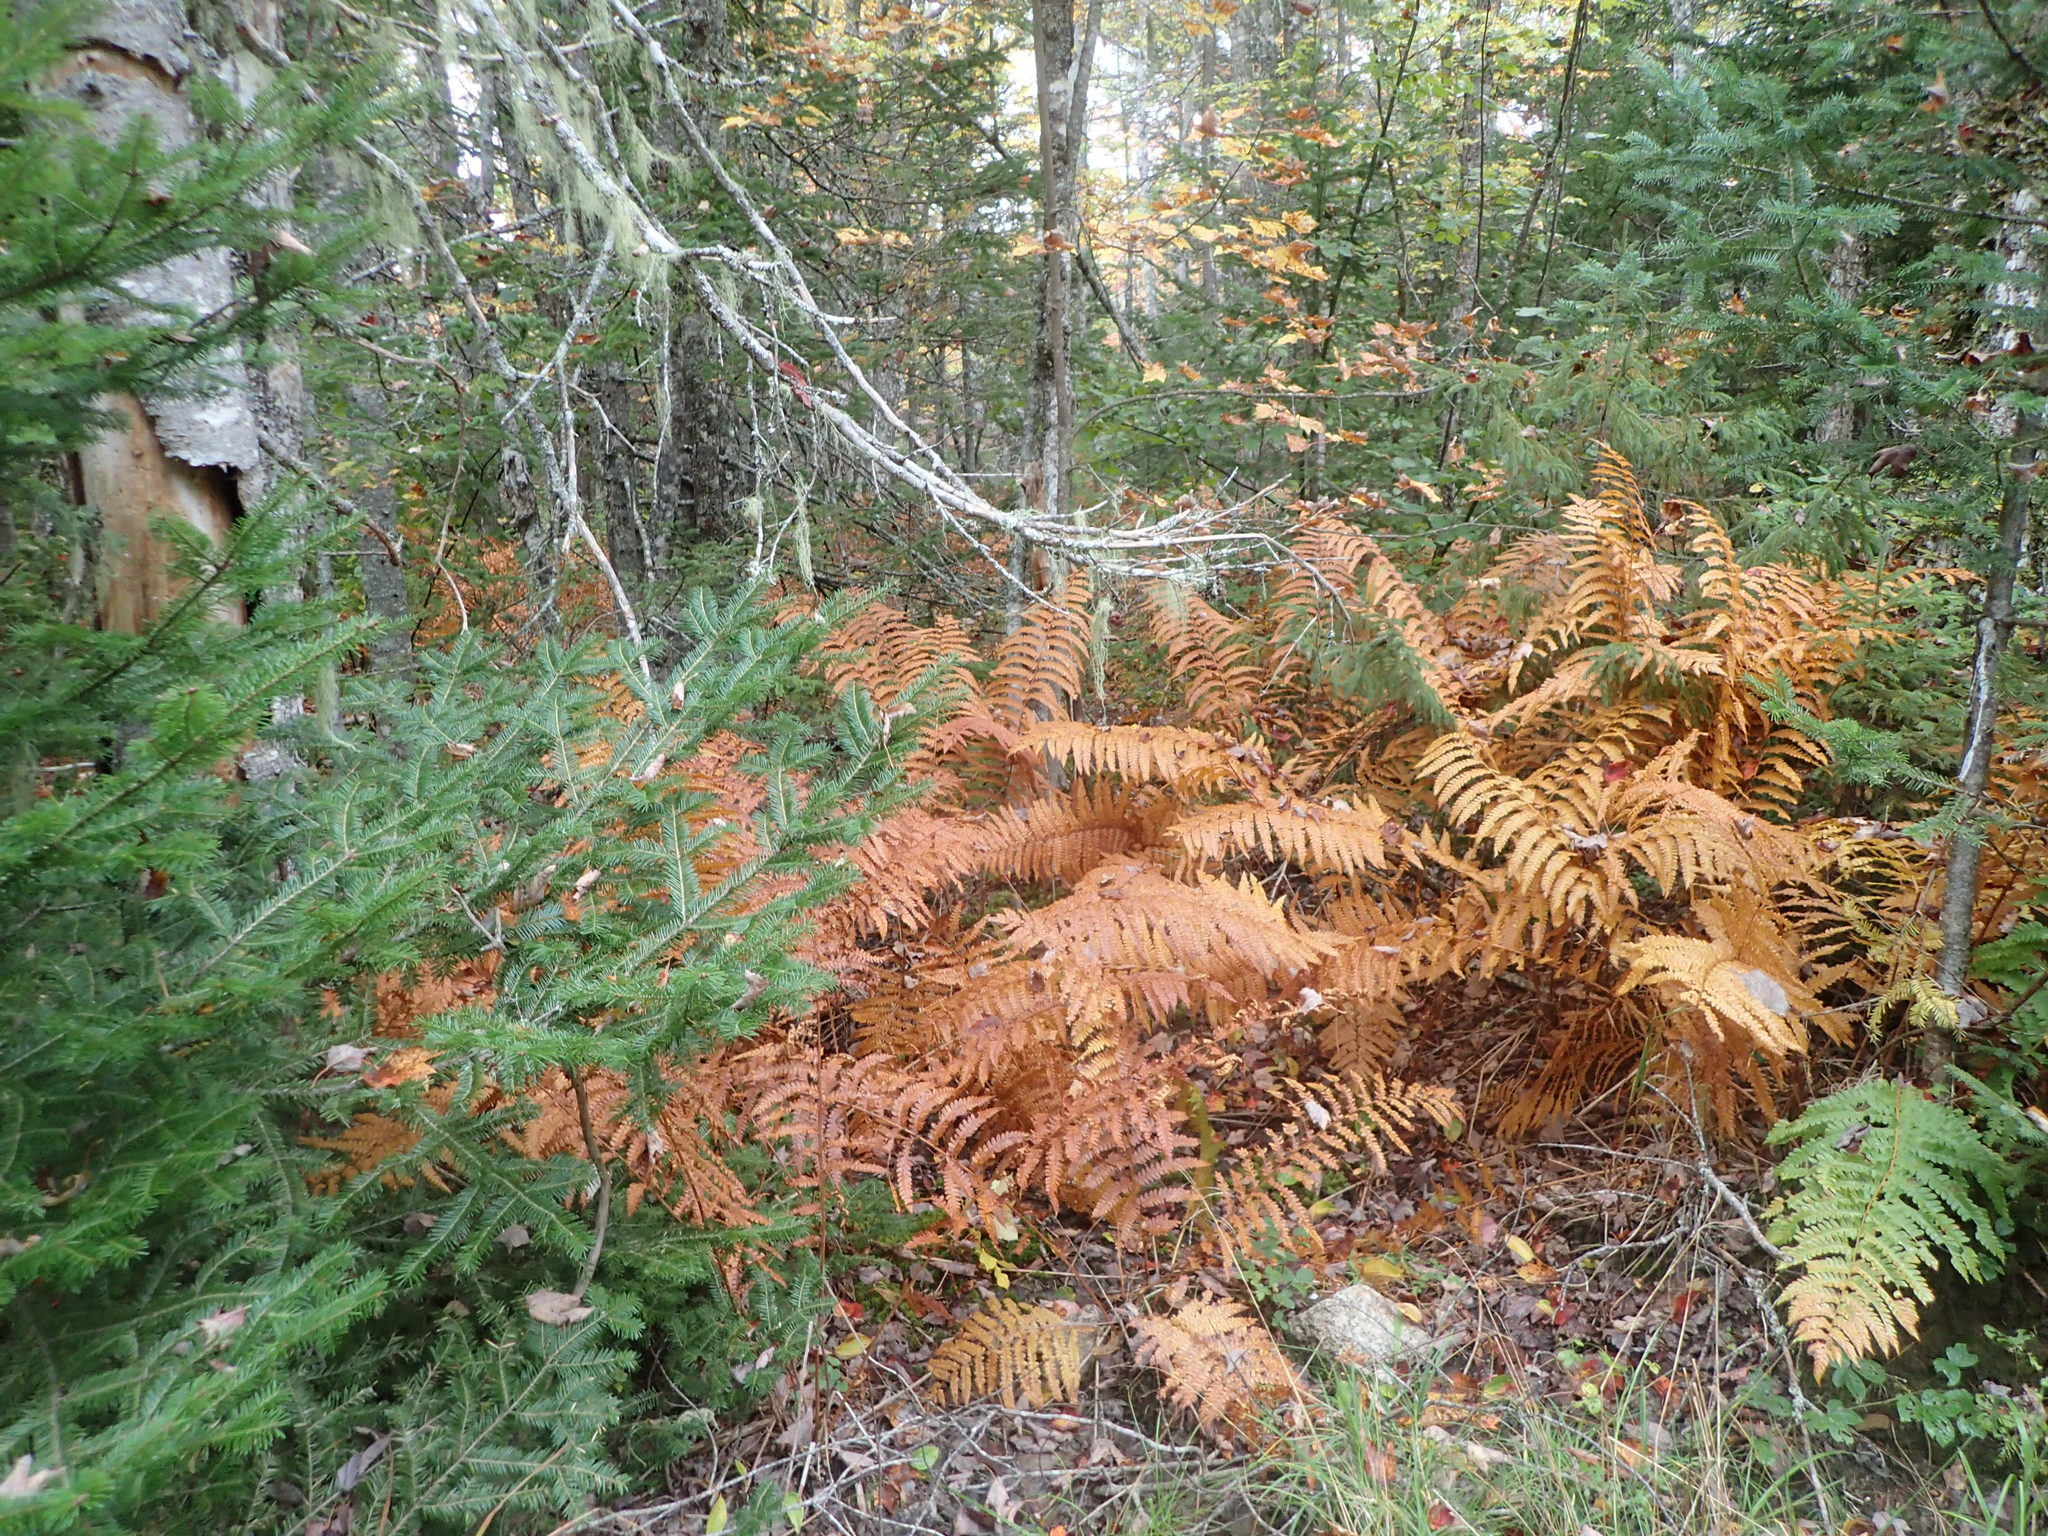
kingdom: Plantae
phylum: Tracheophyta
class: Polypodiopsida
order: Osmundales
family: Osmundaceae
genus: Osmundastrum
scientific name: Osmundastrum cinnamomeum
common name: Cinnamon fern
